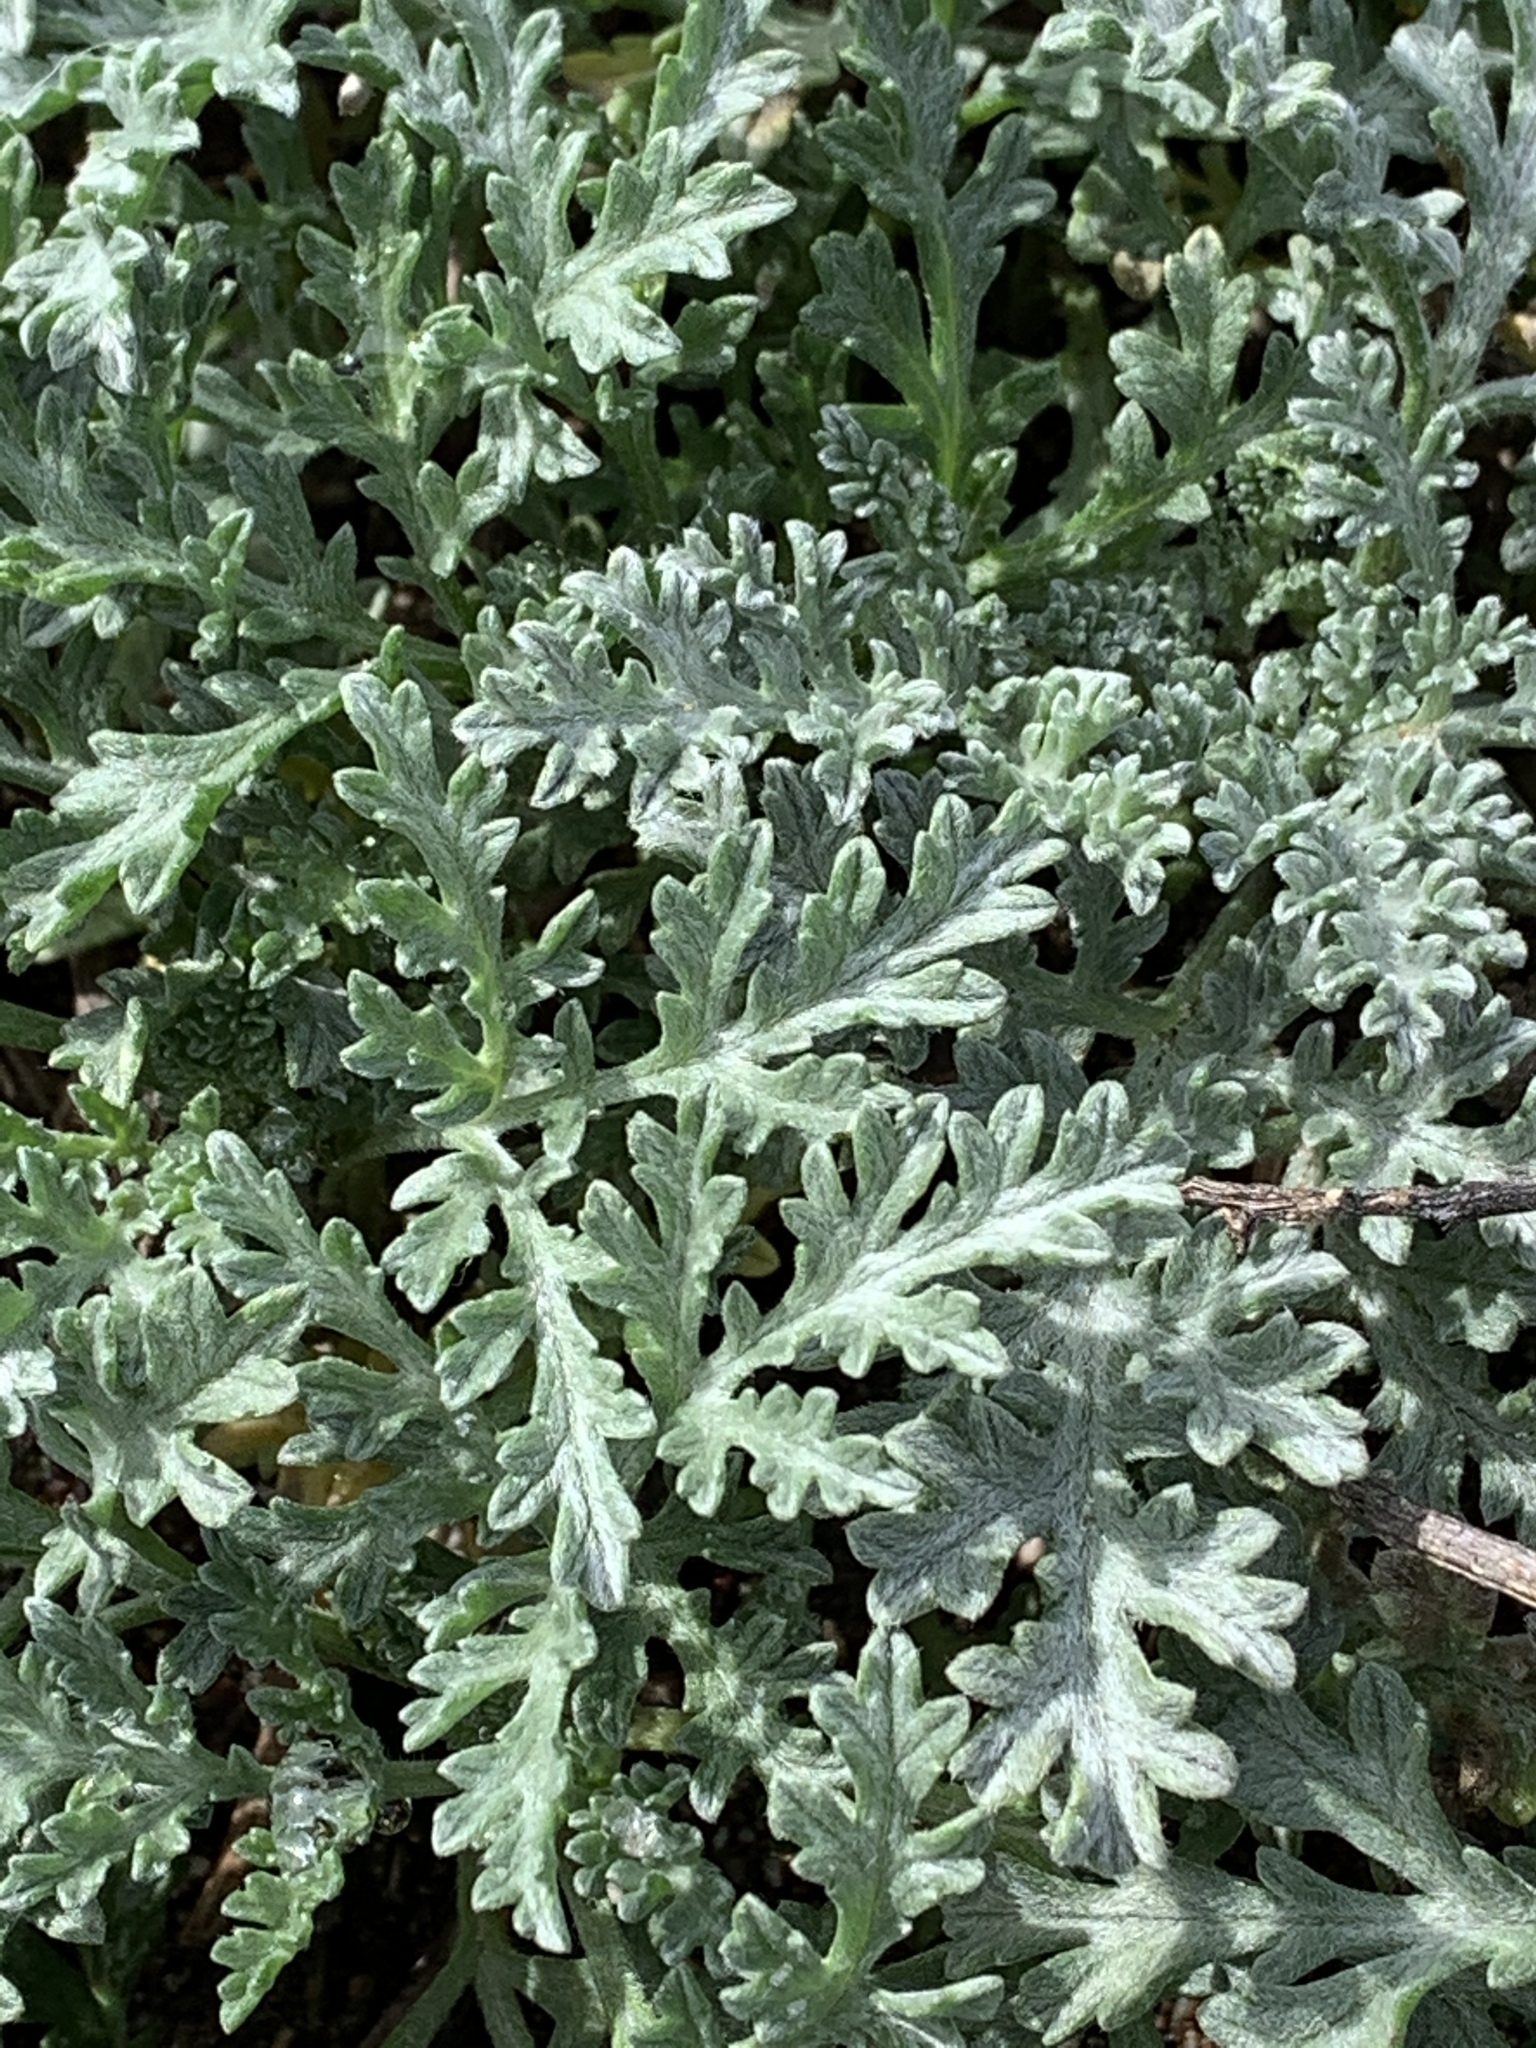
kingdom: Plantae
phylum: Tracheophyta
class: Magnoliopsida
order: Asterales
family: Asteraceae
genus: Ambrosia
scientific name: Ambrosia chamissonis
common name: Beachbur
